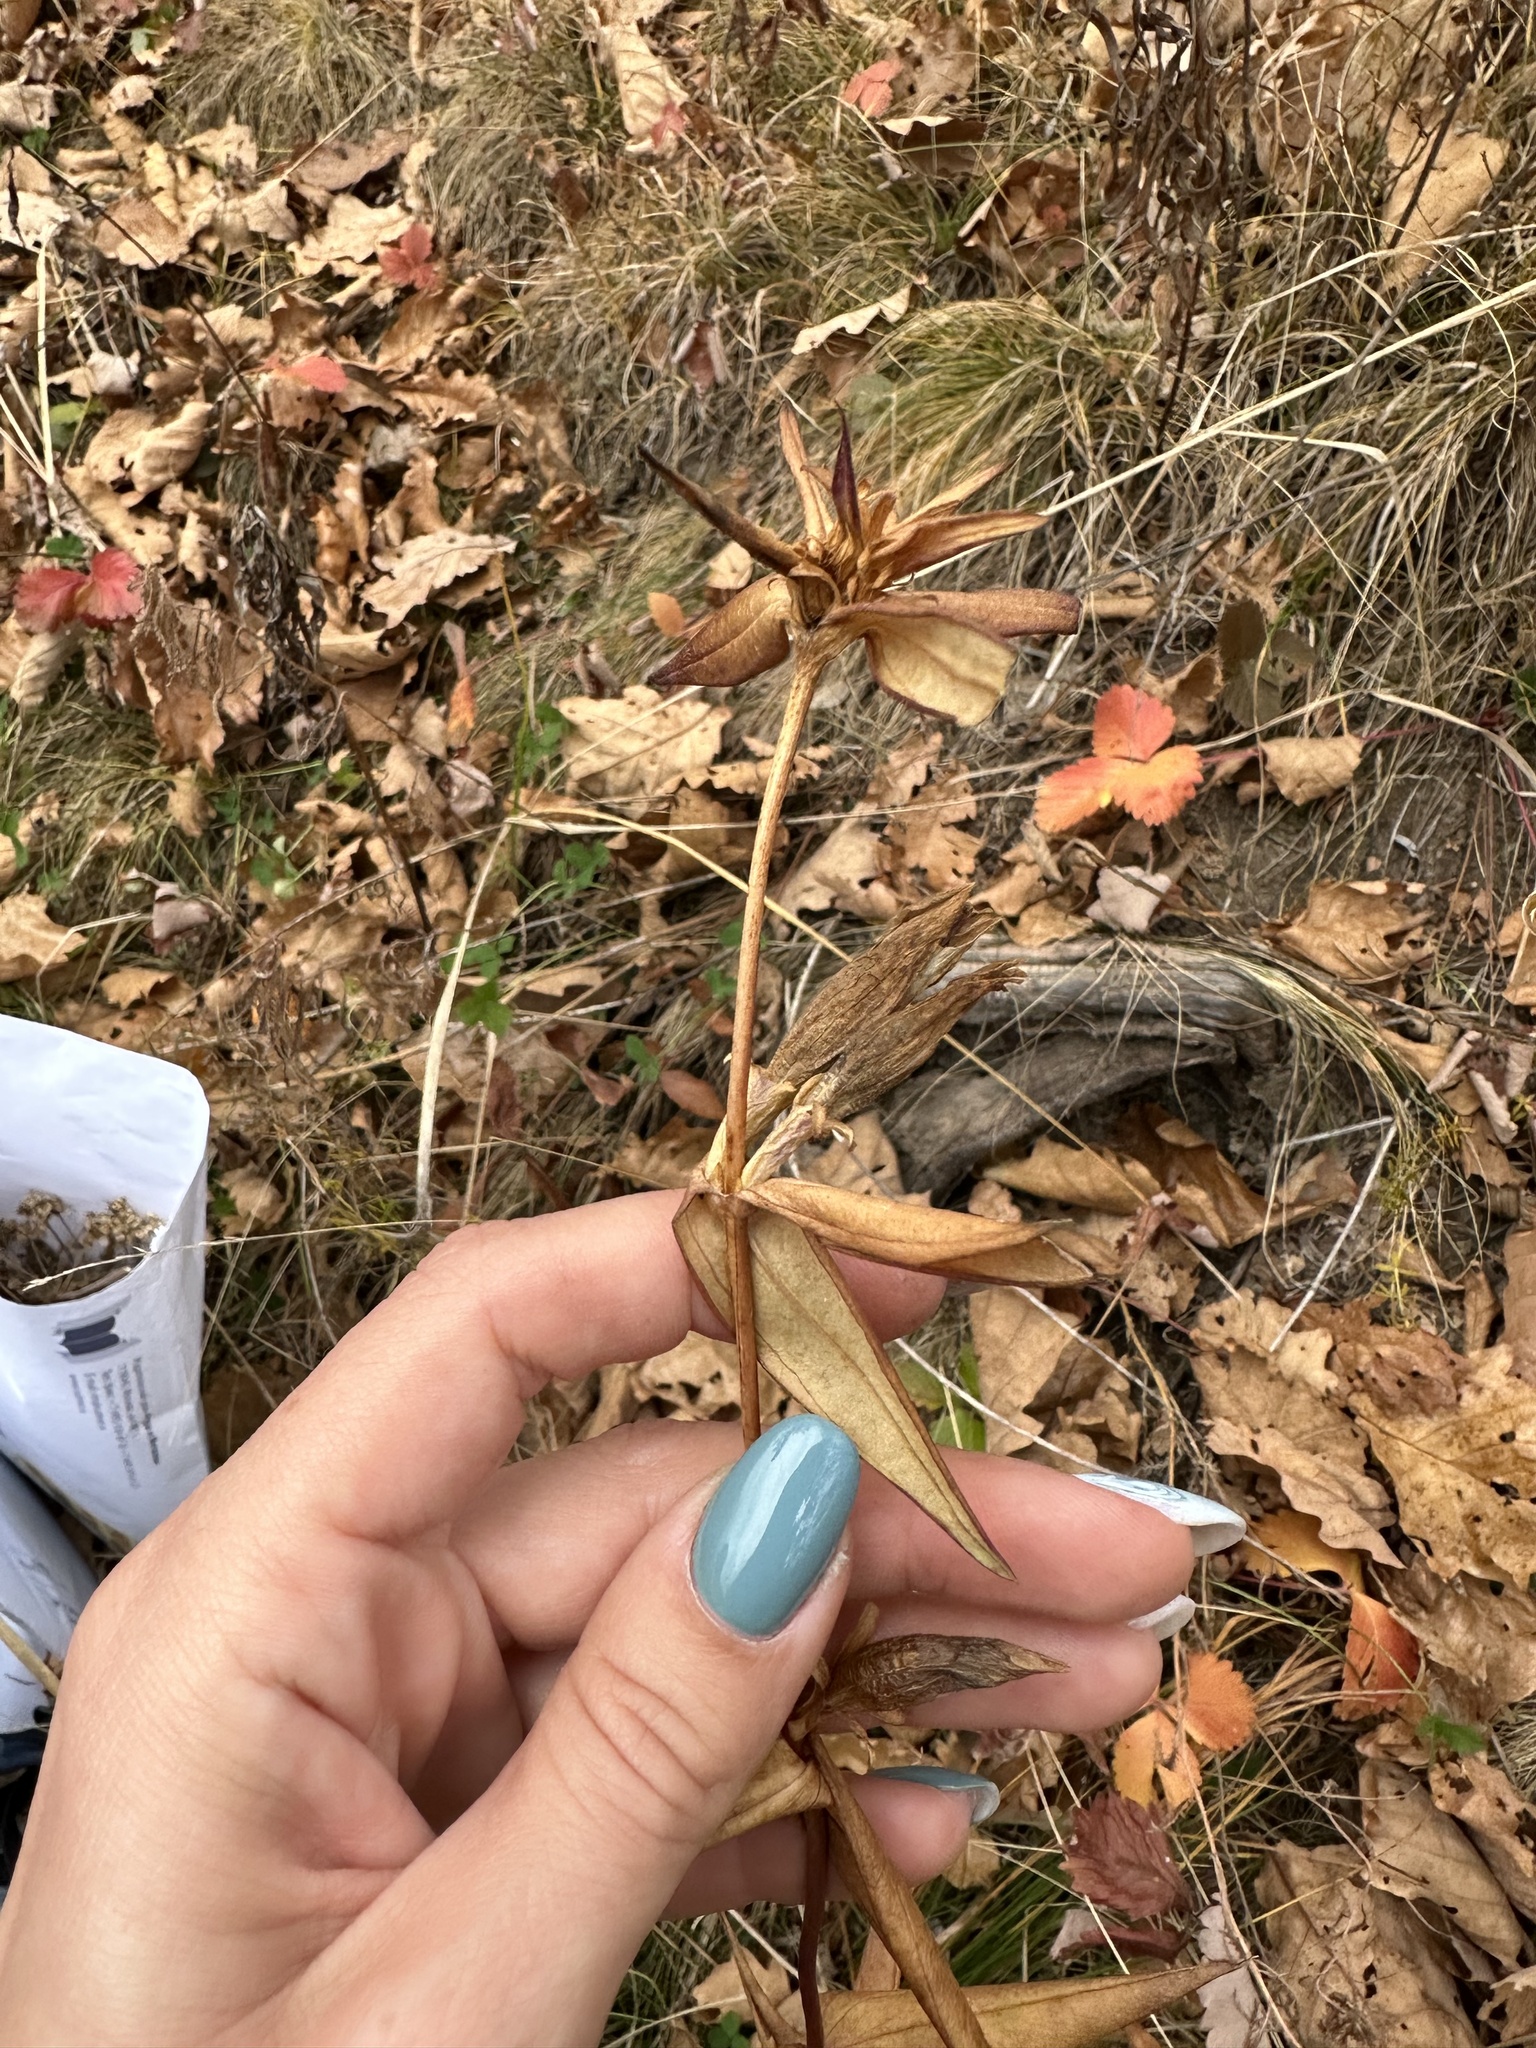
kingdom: Plantae
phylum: Tracheophyta
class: Magnoliopsida
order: Gentianales
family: Gentianaceae
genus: Gentiana
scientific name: Gentiana scabra
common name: Scabrous gentian
